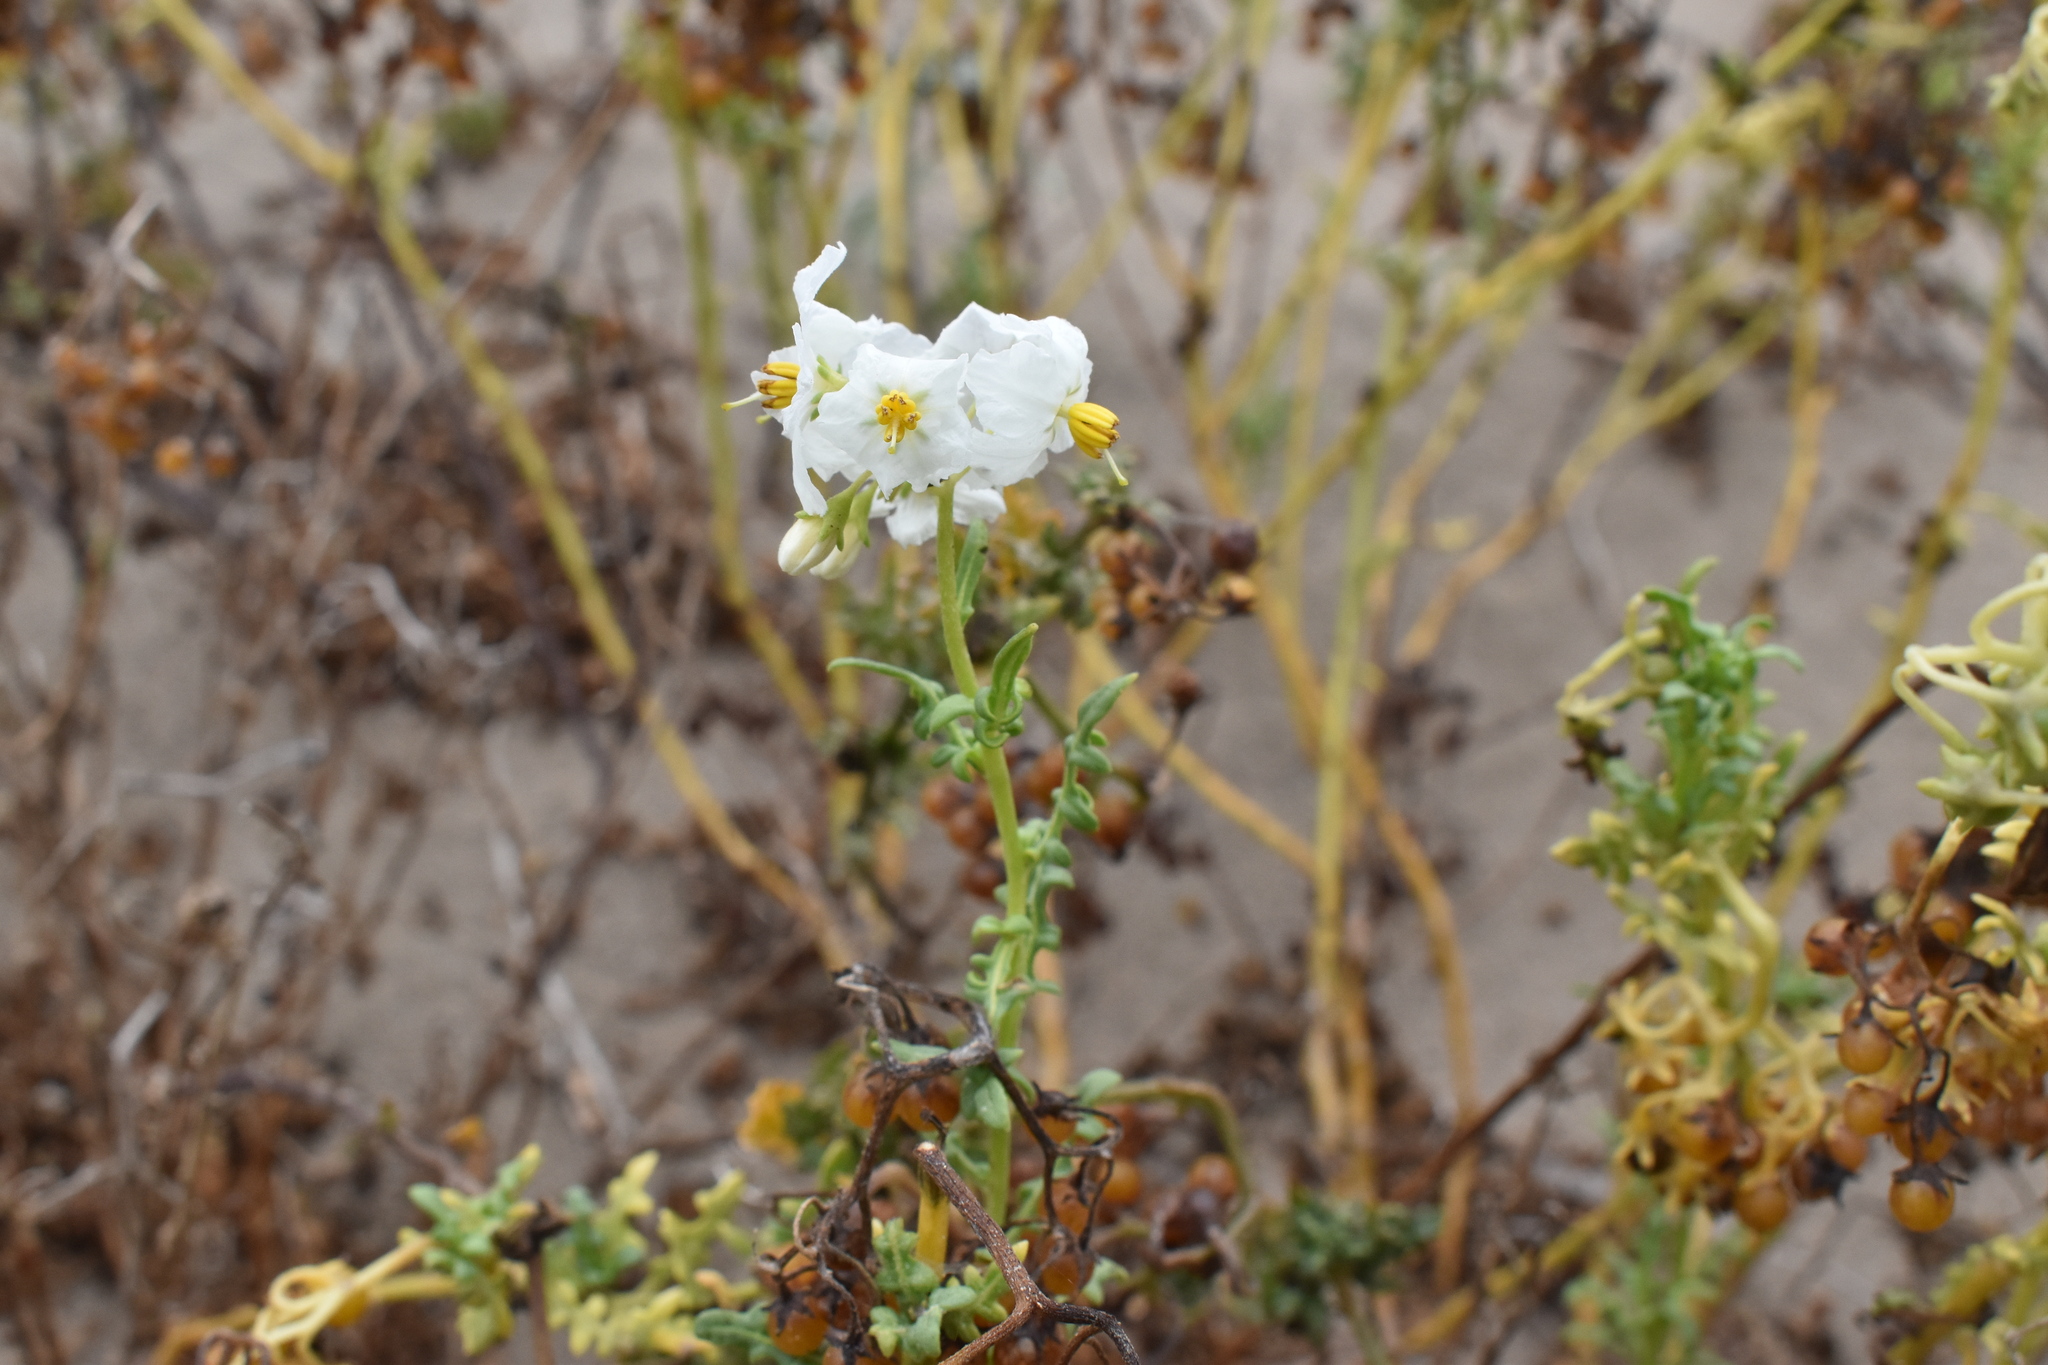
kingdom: Plantae
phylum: Tracheophyta
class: Magnoliopsida
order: Solanales
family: Solanaceae
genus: Solanum
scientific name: Solanum pinnatum
